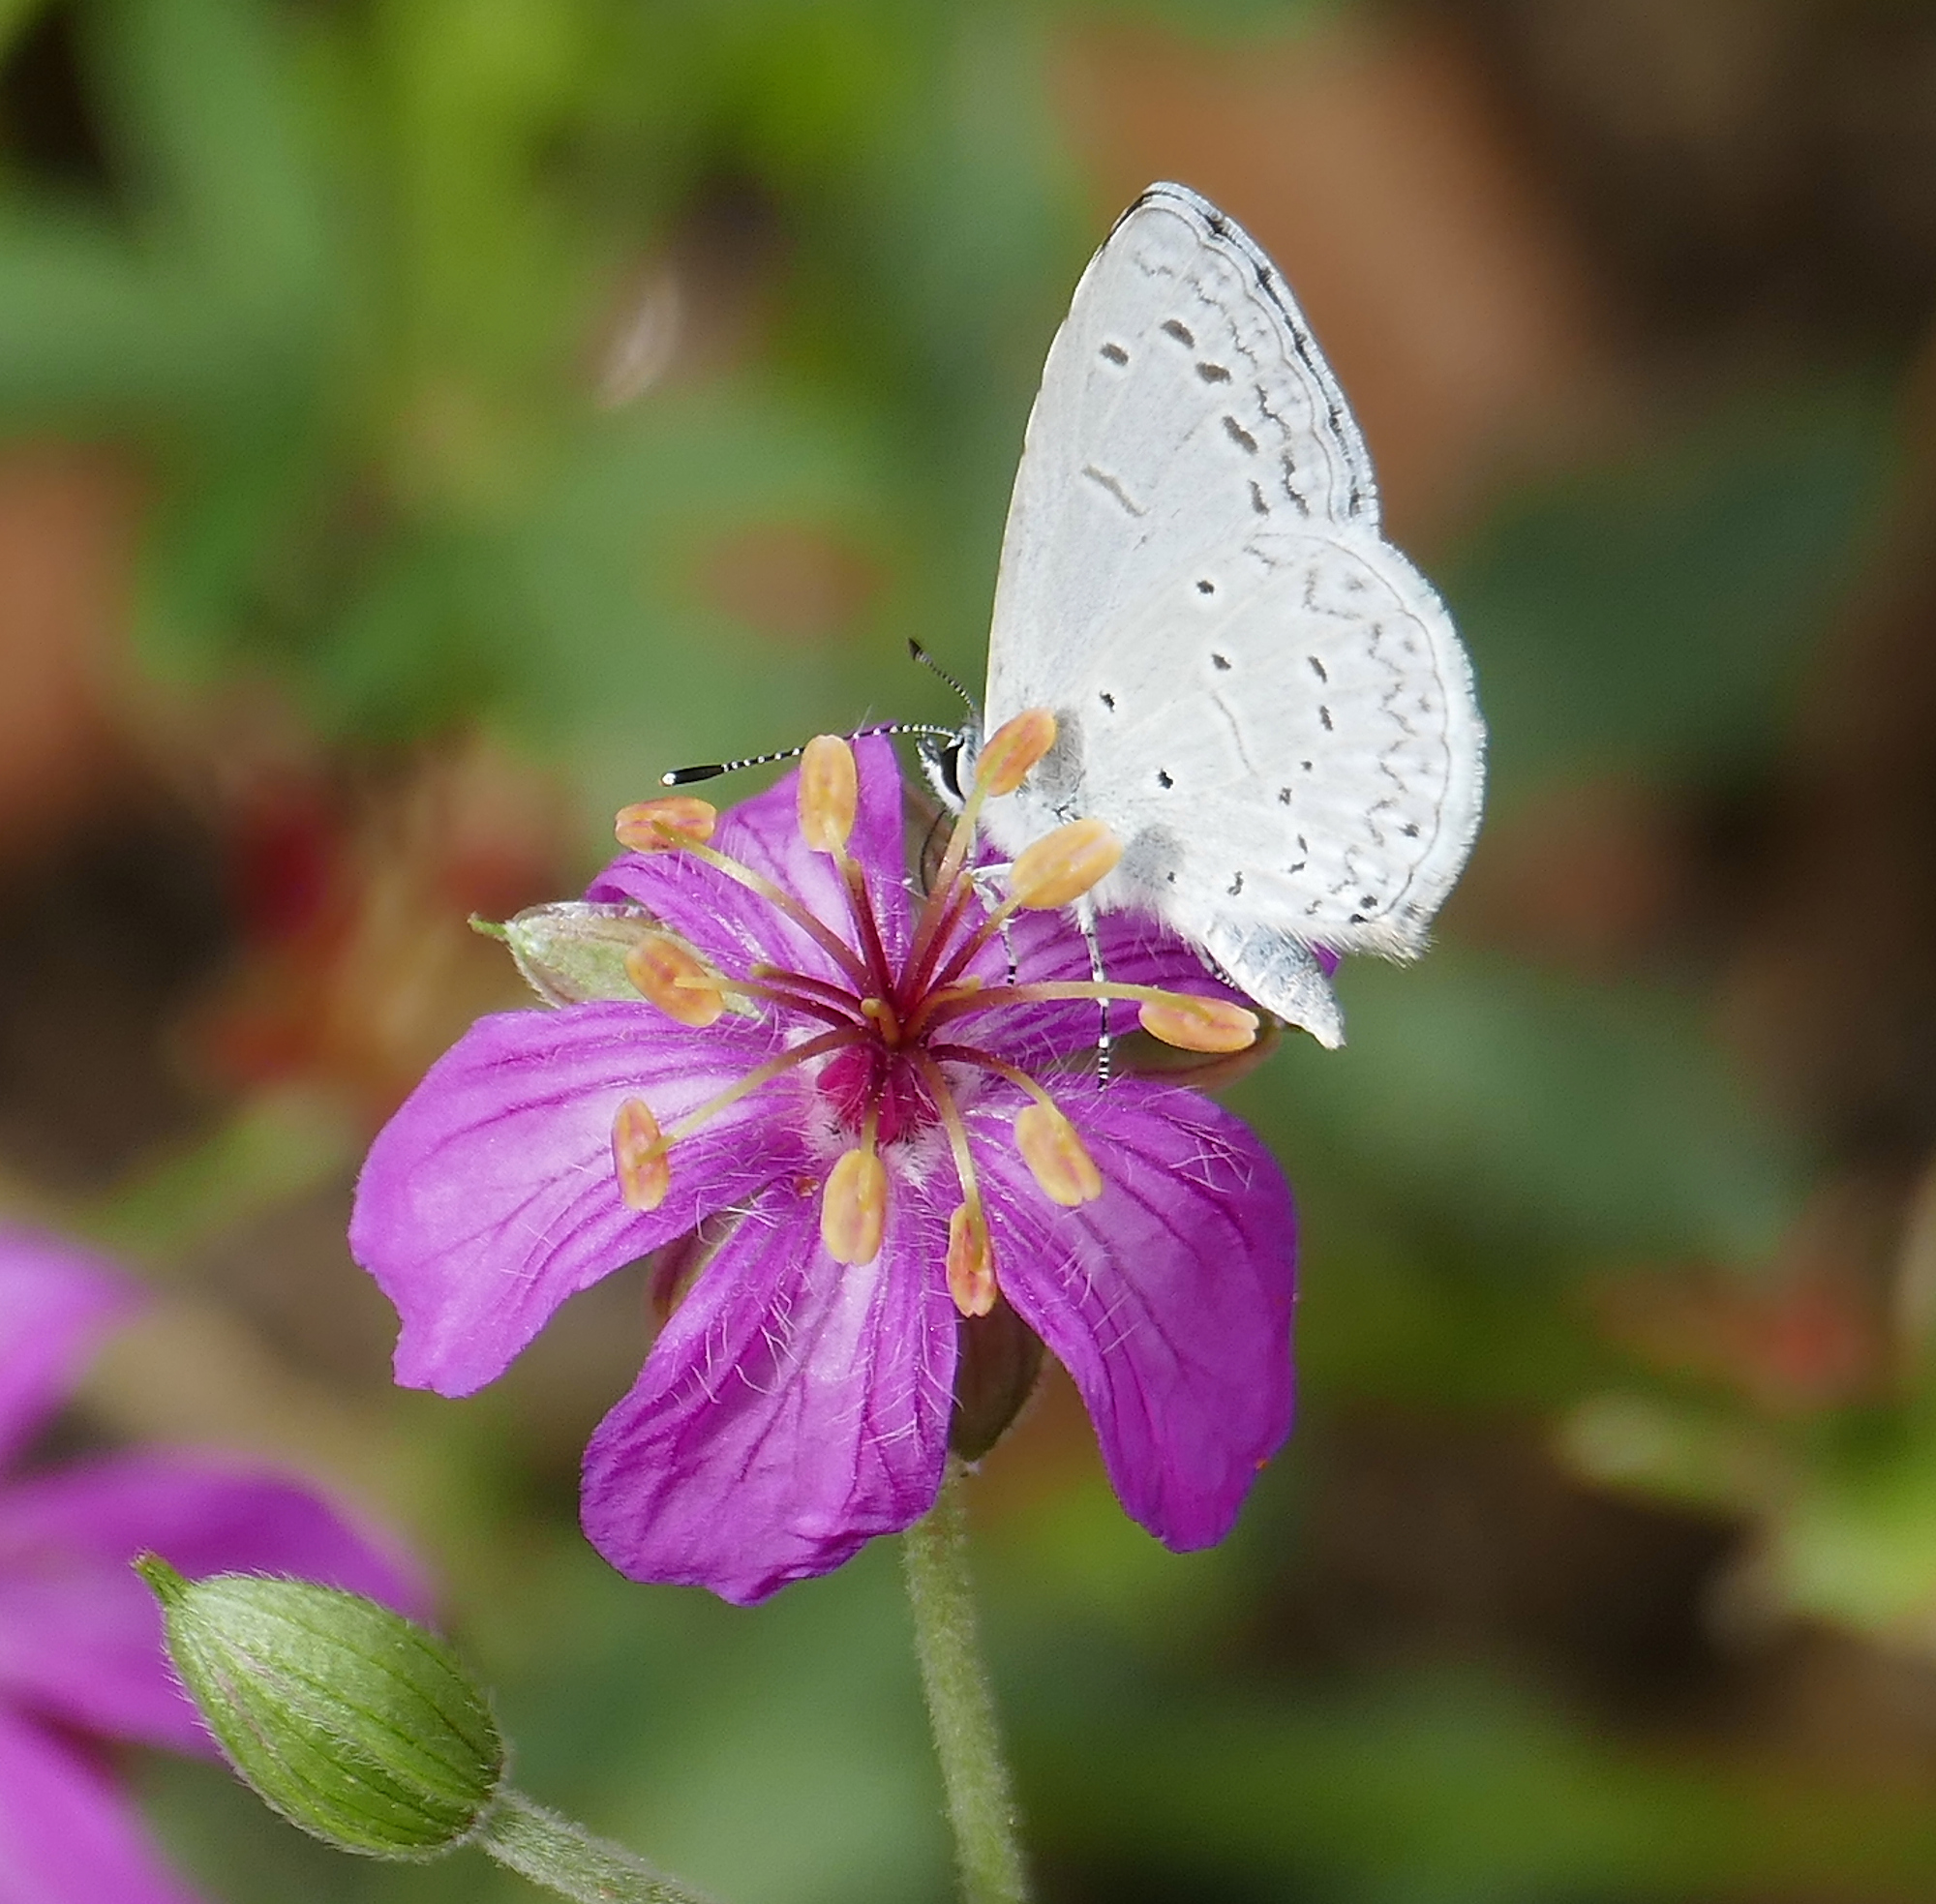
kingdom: Animalia
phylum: Arthropoda
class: Insecta
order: Lepidoptera
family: Lycaenidae
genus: Celastrina
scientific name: Celastrina ladon
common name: Spring azure
